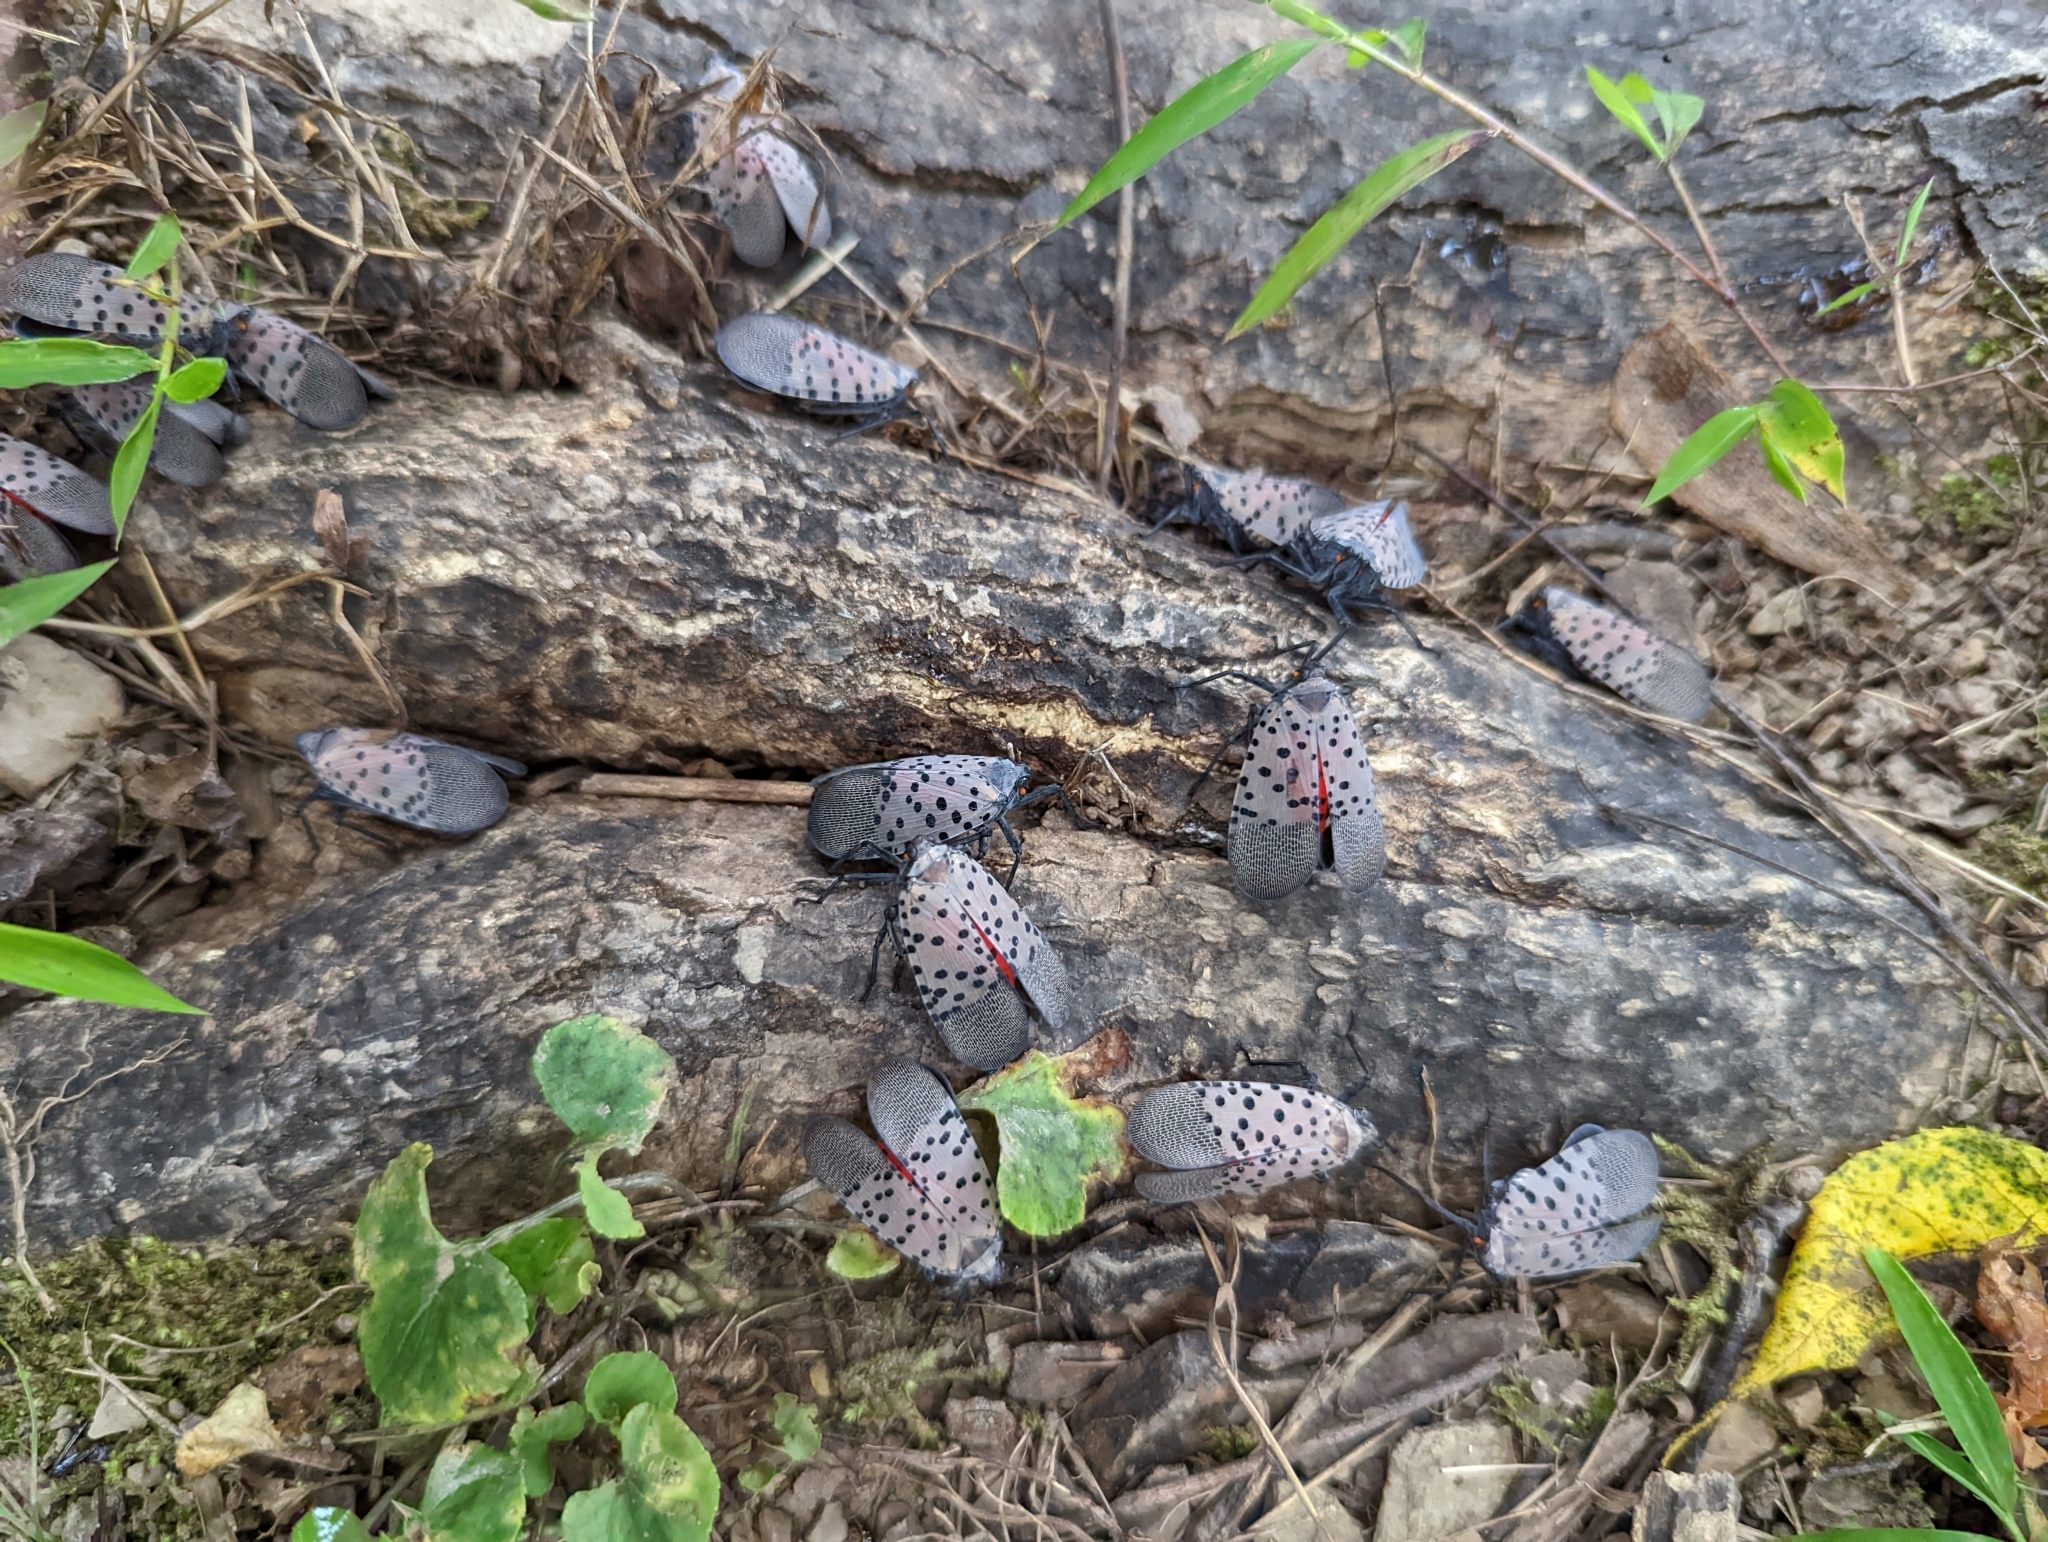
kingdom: Animalia
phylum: Arthropoda
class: Insecta
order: Hemiptera
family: Fulgoridae
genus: Lycorma
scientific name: Lycorma delicatula
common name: Spotted lanternfly
